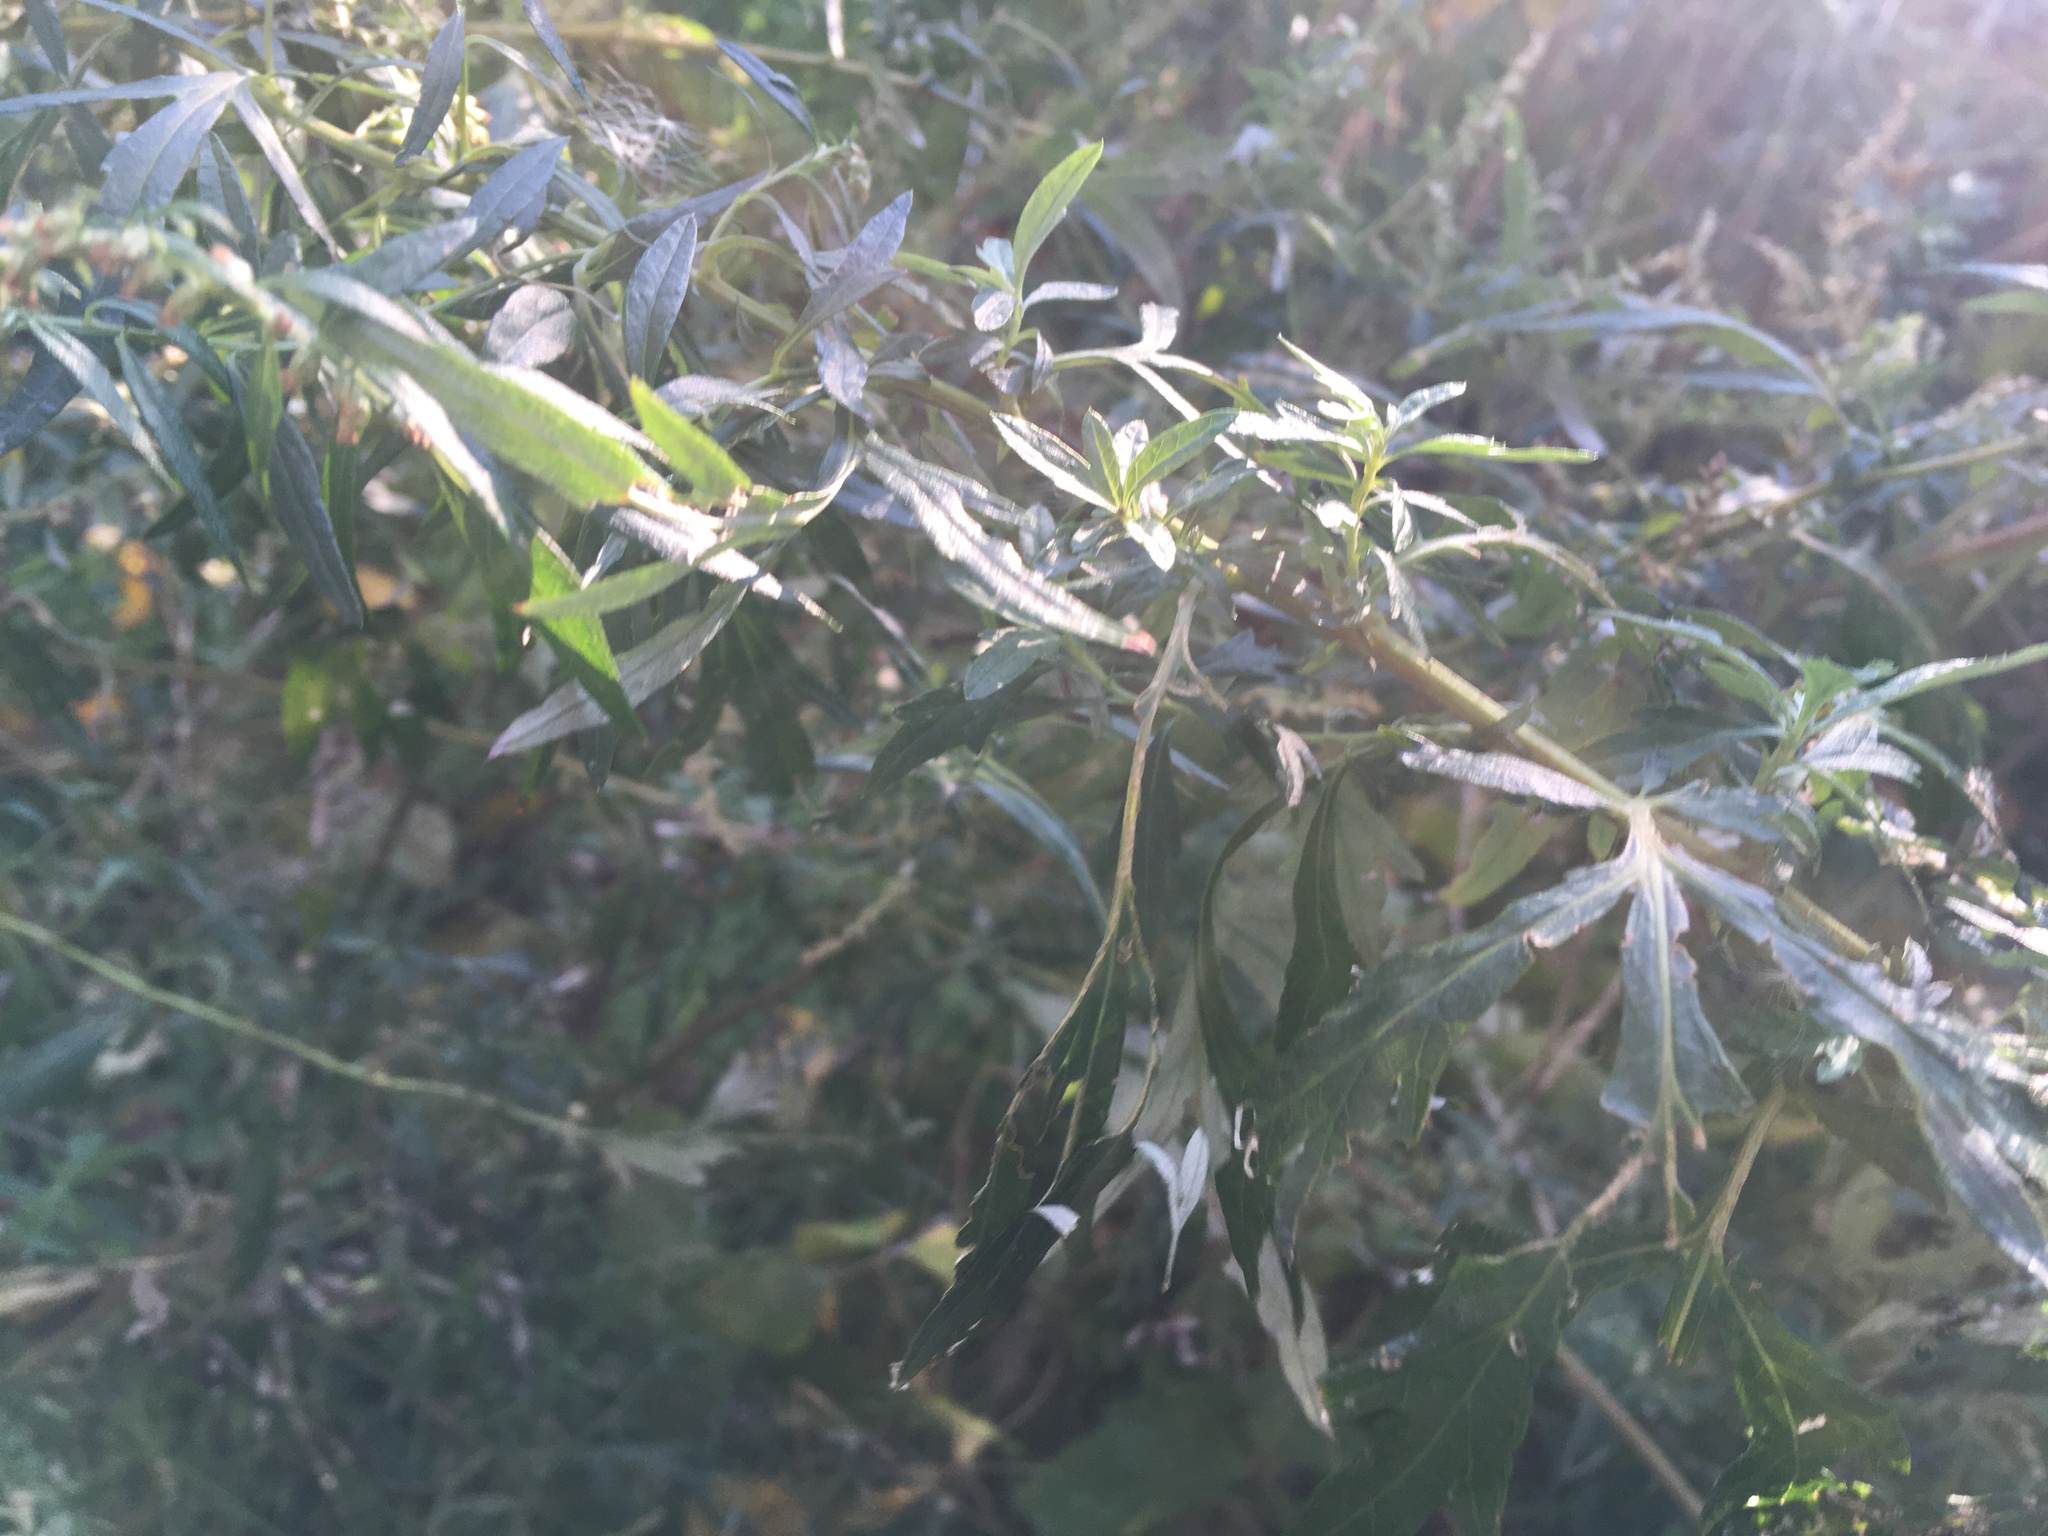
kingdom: Plantae
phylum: Tracheophyta
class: Magnoliopsida
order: Asterales
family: Asteraceae
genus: Artemisia
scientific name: Artemisia vulgaris
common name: Mugwort
